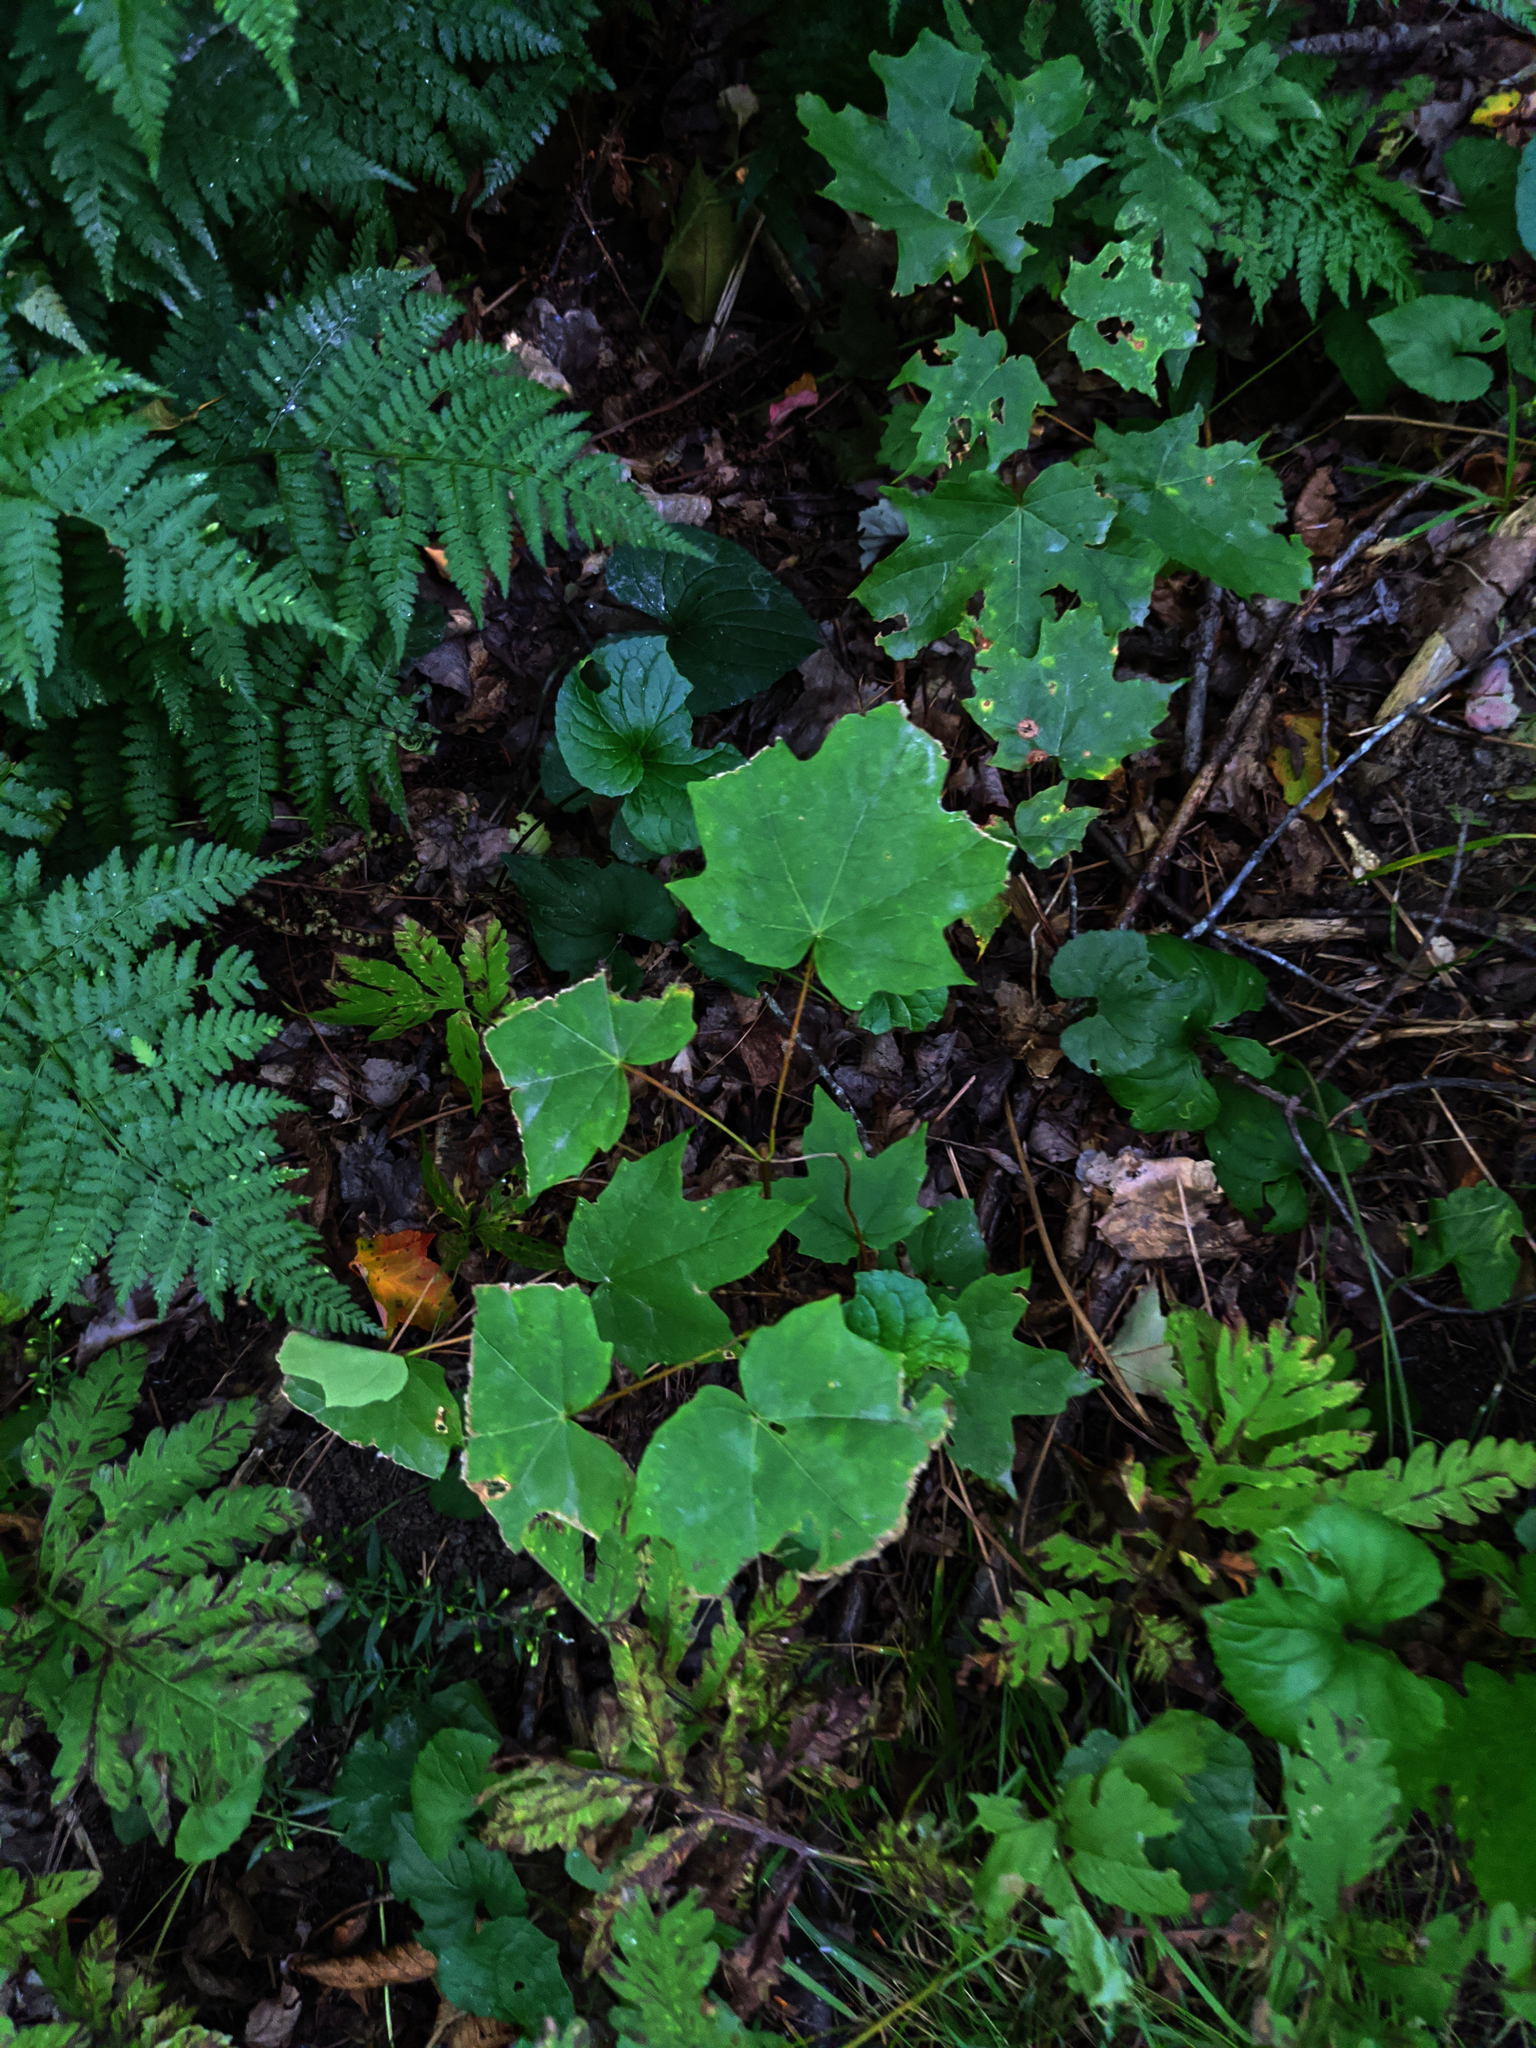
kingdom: Plantae
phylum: Tracheophyta
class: Magnoliopsida
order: Sapindales
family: Sapindaceae
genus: Acer
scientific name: Acer saccharum
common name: Sugar maple
